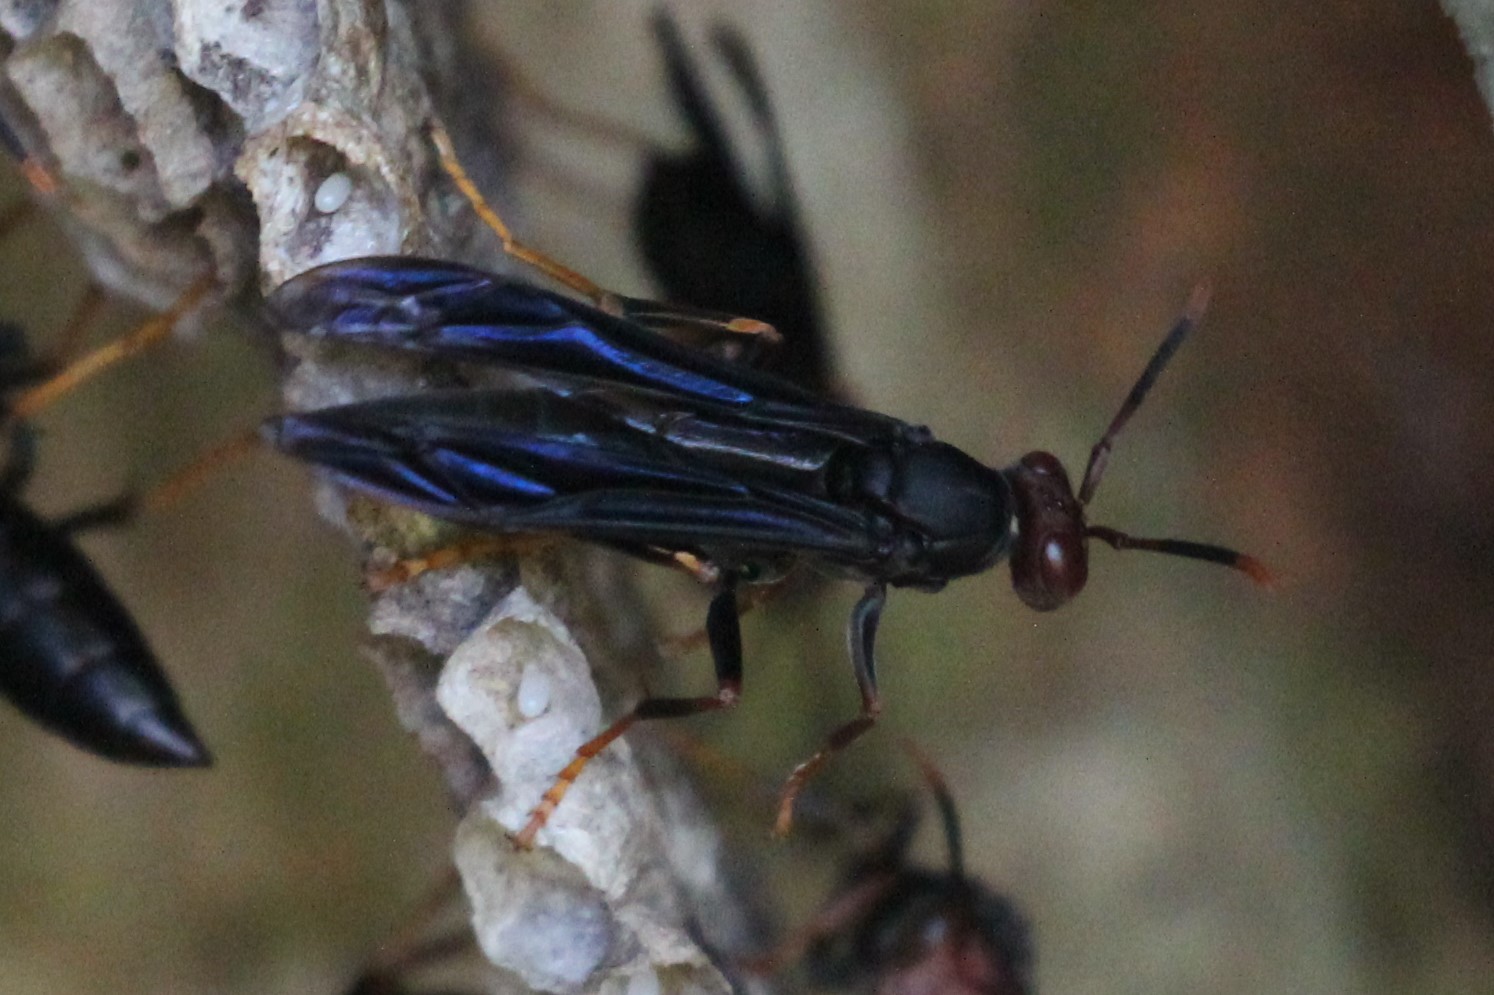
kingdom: Animalia
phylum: Arthropoda
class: Insecta
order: Hymenoptera
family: Eumenidae
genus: Polistes
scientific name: Polistes erythrocephalus
